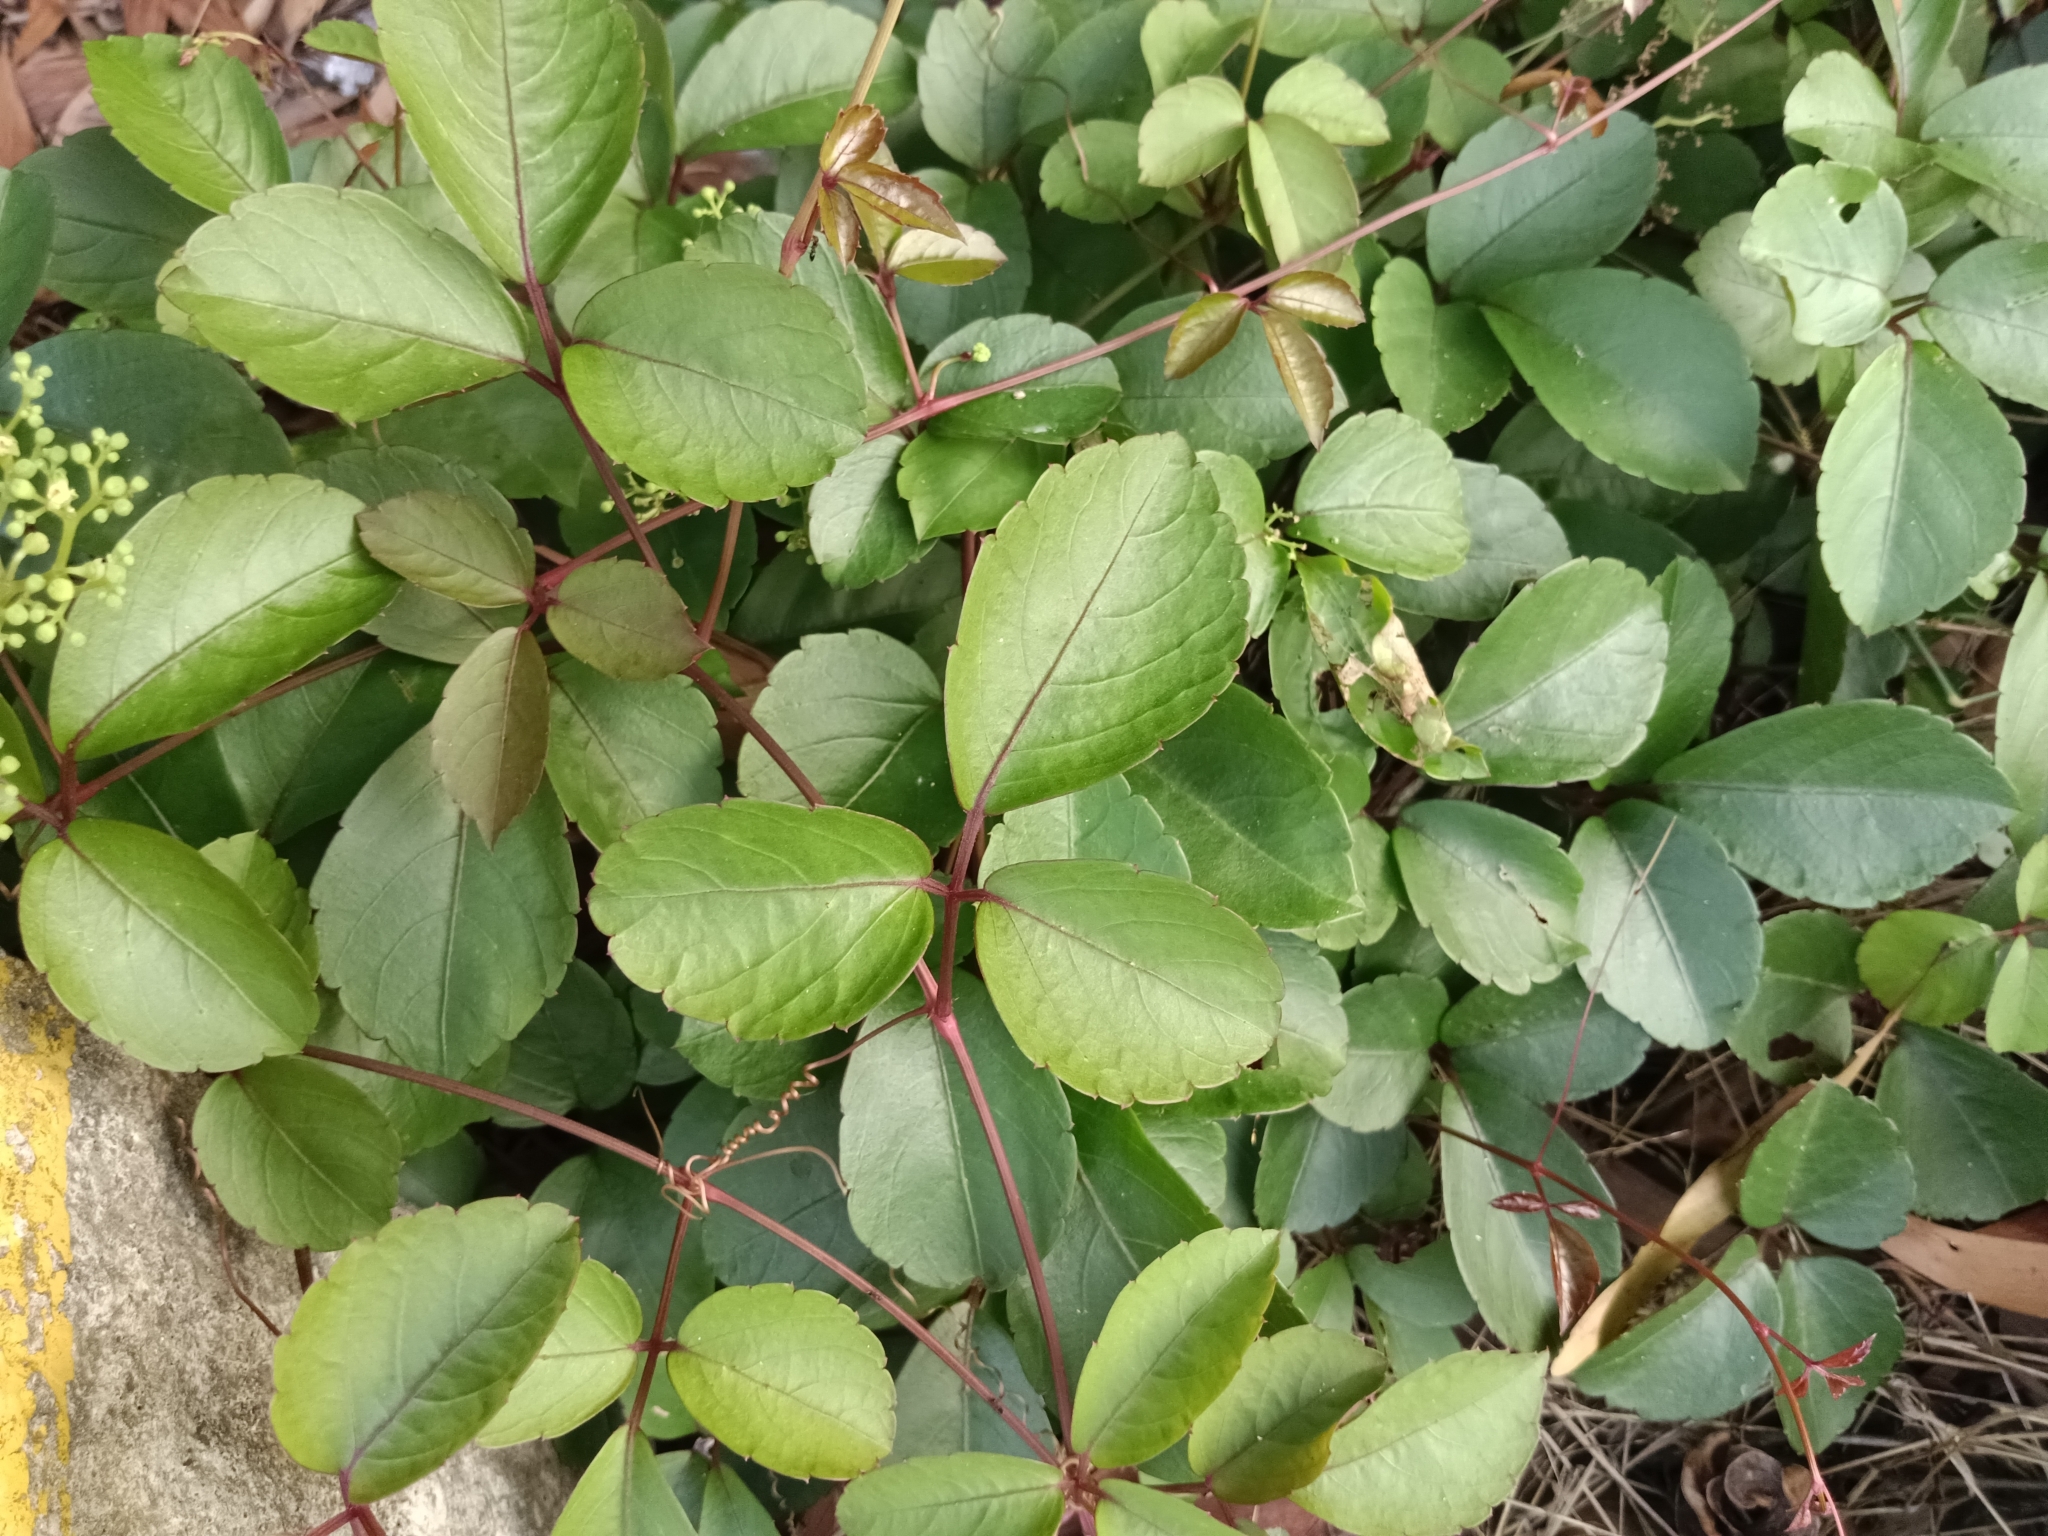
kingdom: Plantae
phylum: Tracheophyta
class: Magnoliopsida
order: Vitales
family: Vitaceae
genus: Causonis
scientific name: Causonis trifolia
